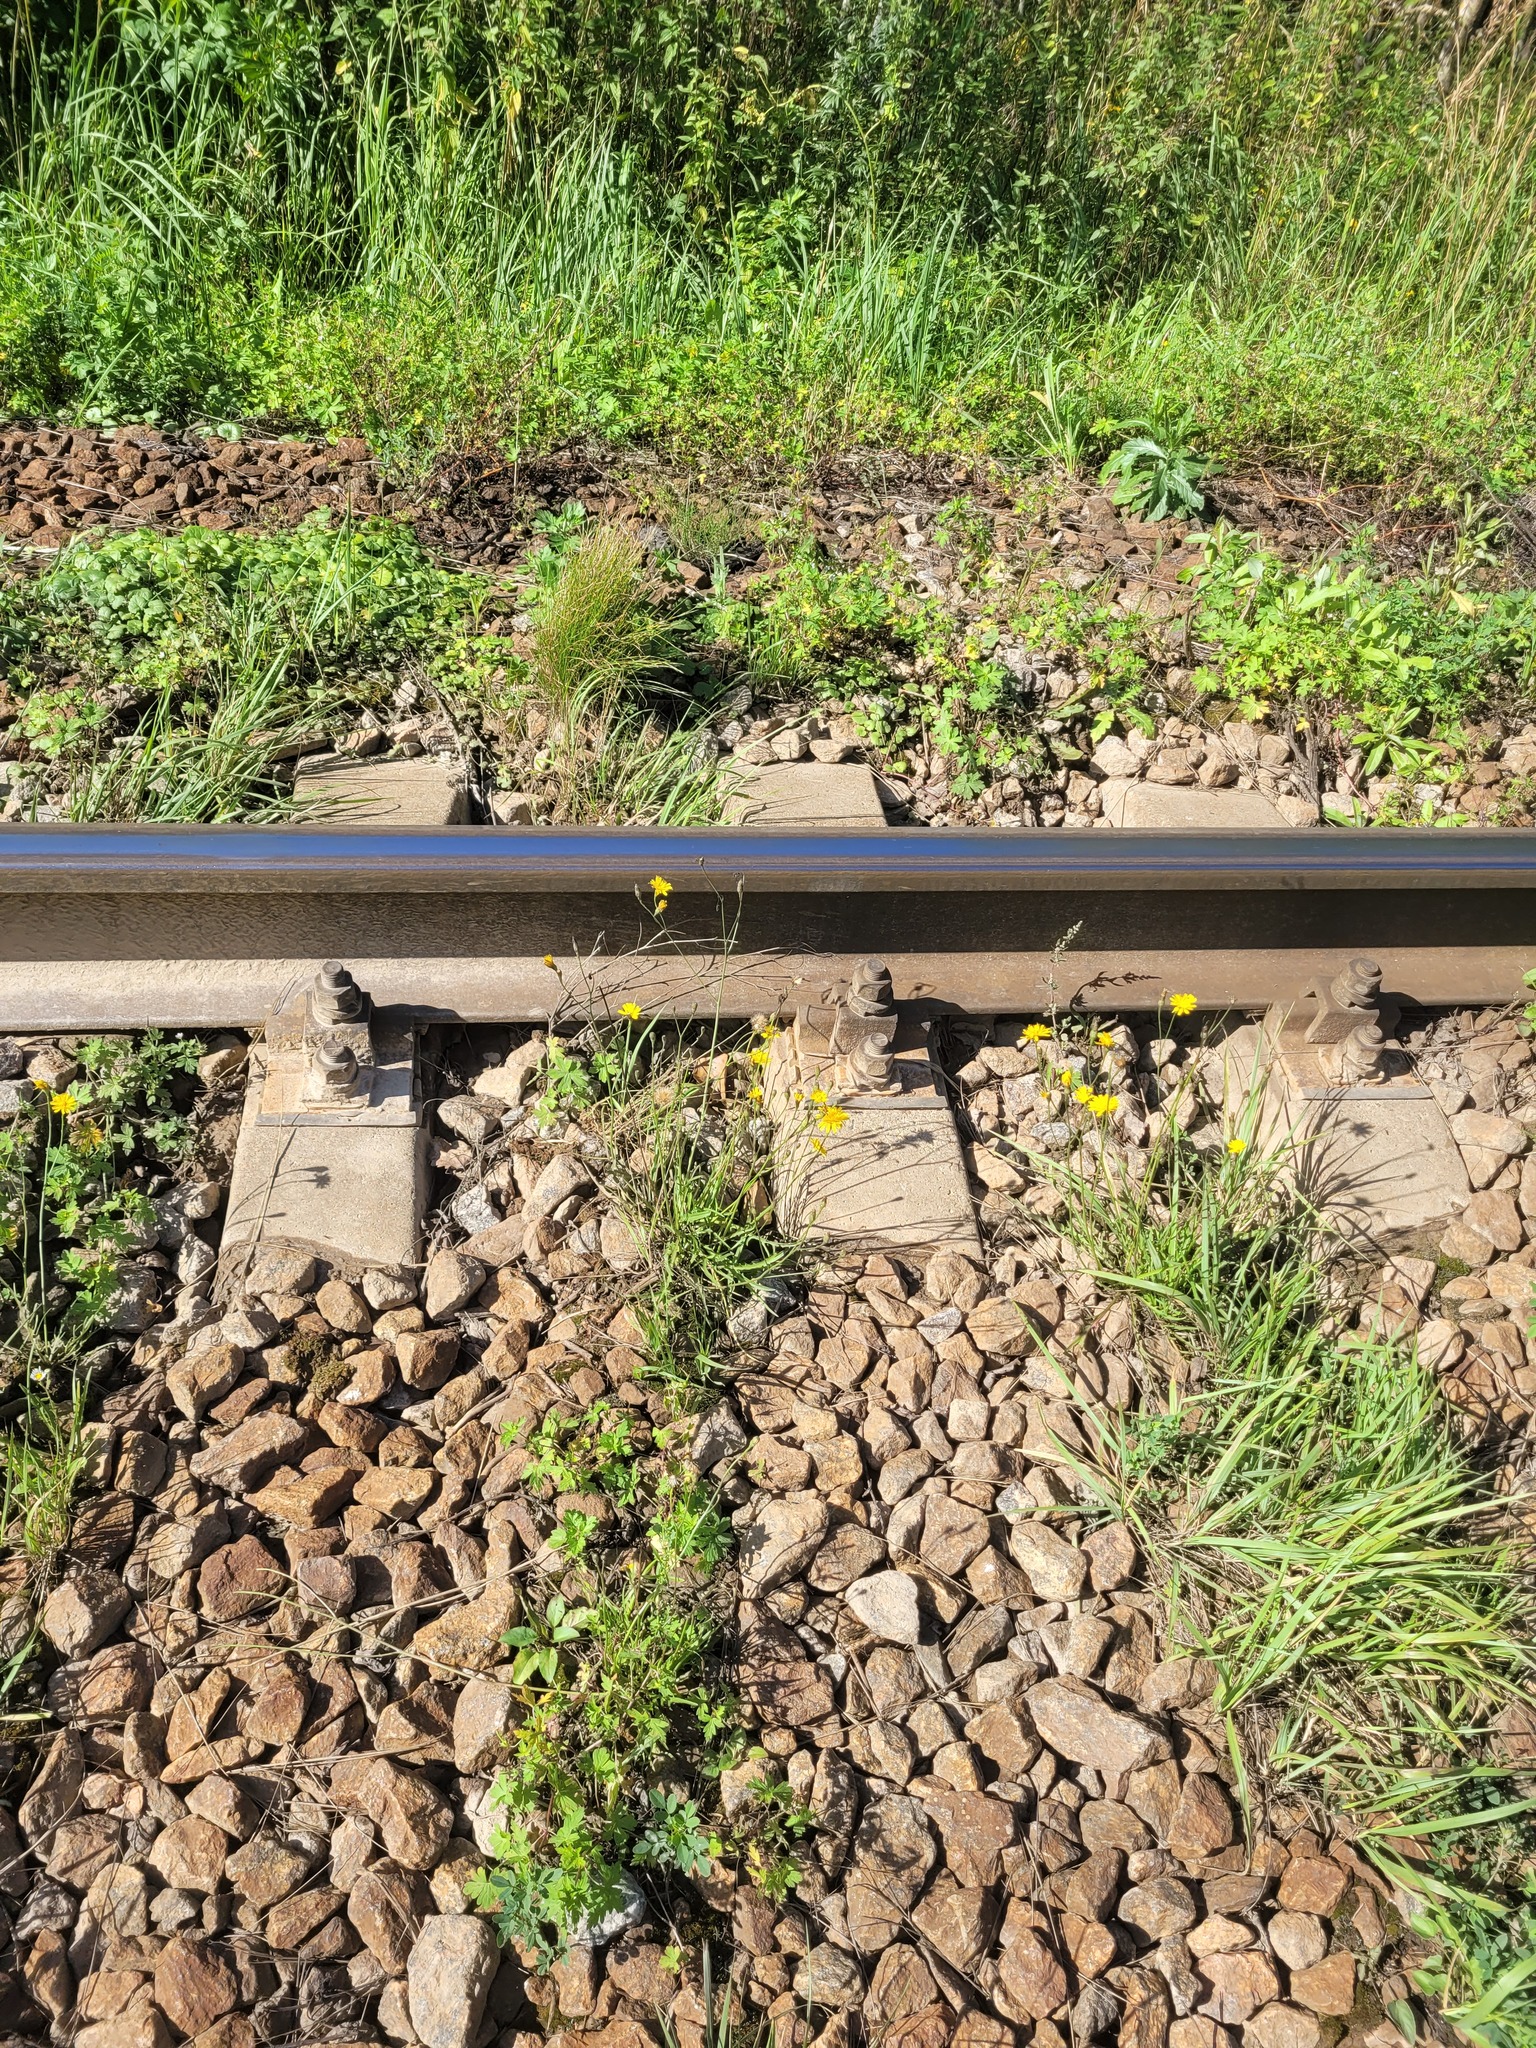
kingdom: Plantae
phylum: Tracheophyta
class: Magnoliopsida
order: Asterales
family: Asteraceae
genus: Scorzoneroides
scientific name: Scorzoneroides autumnalis
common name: Autumn hawkbit
